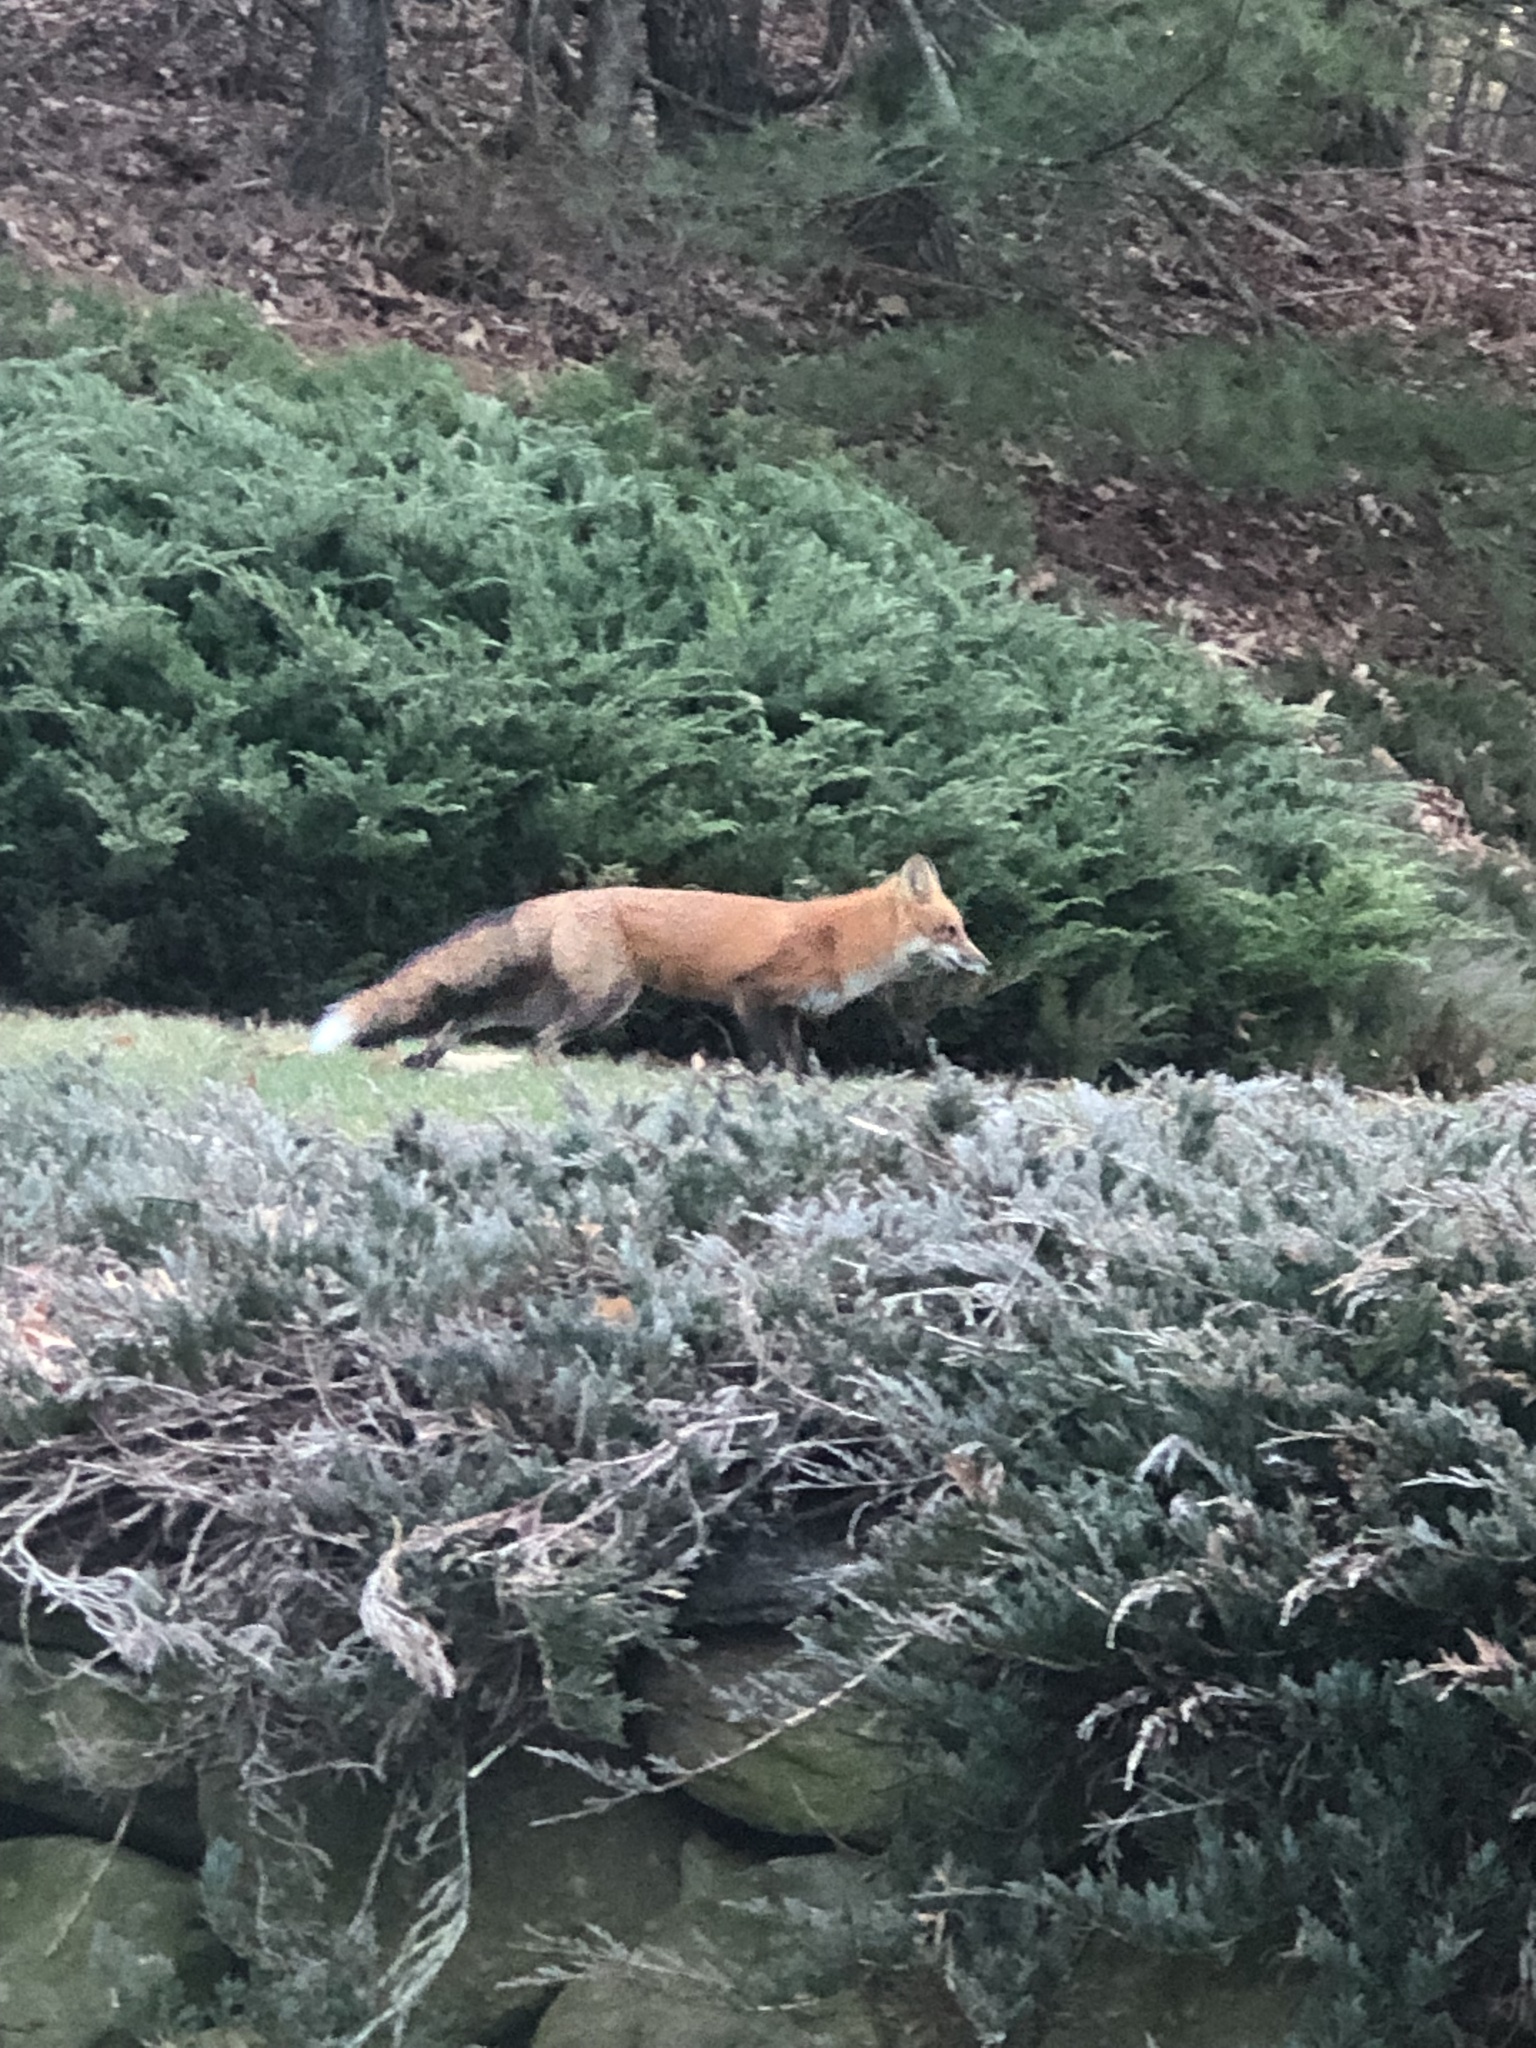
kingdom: Animalia
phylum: Chordata
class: Mammalia
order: Carnivora
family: Canidae
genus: Vulpes
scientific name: Vulpes vulpes
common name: Red fox
